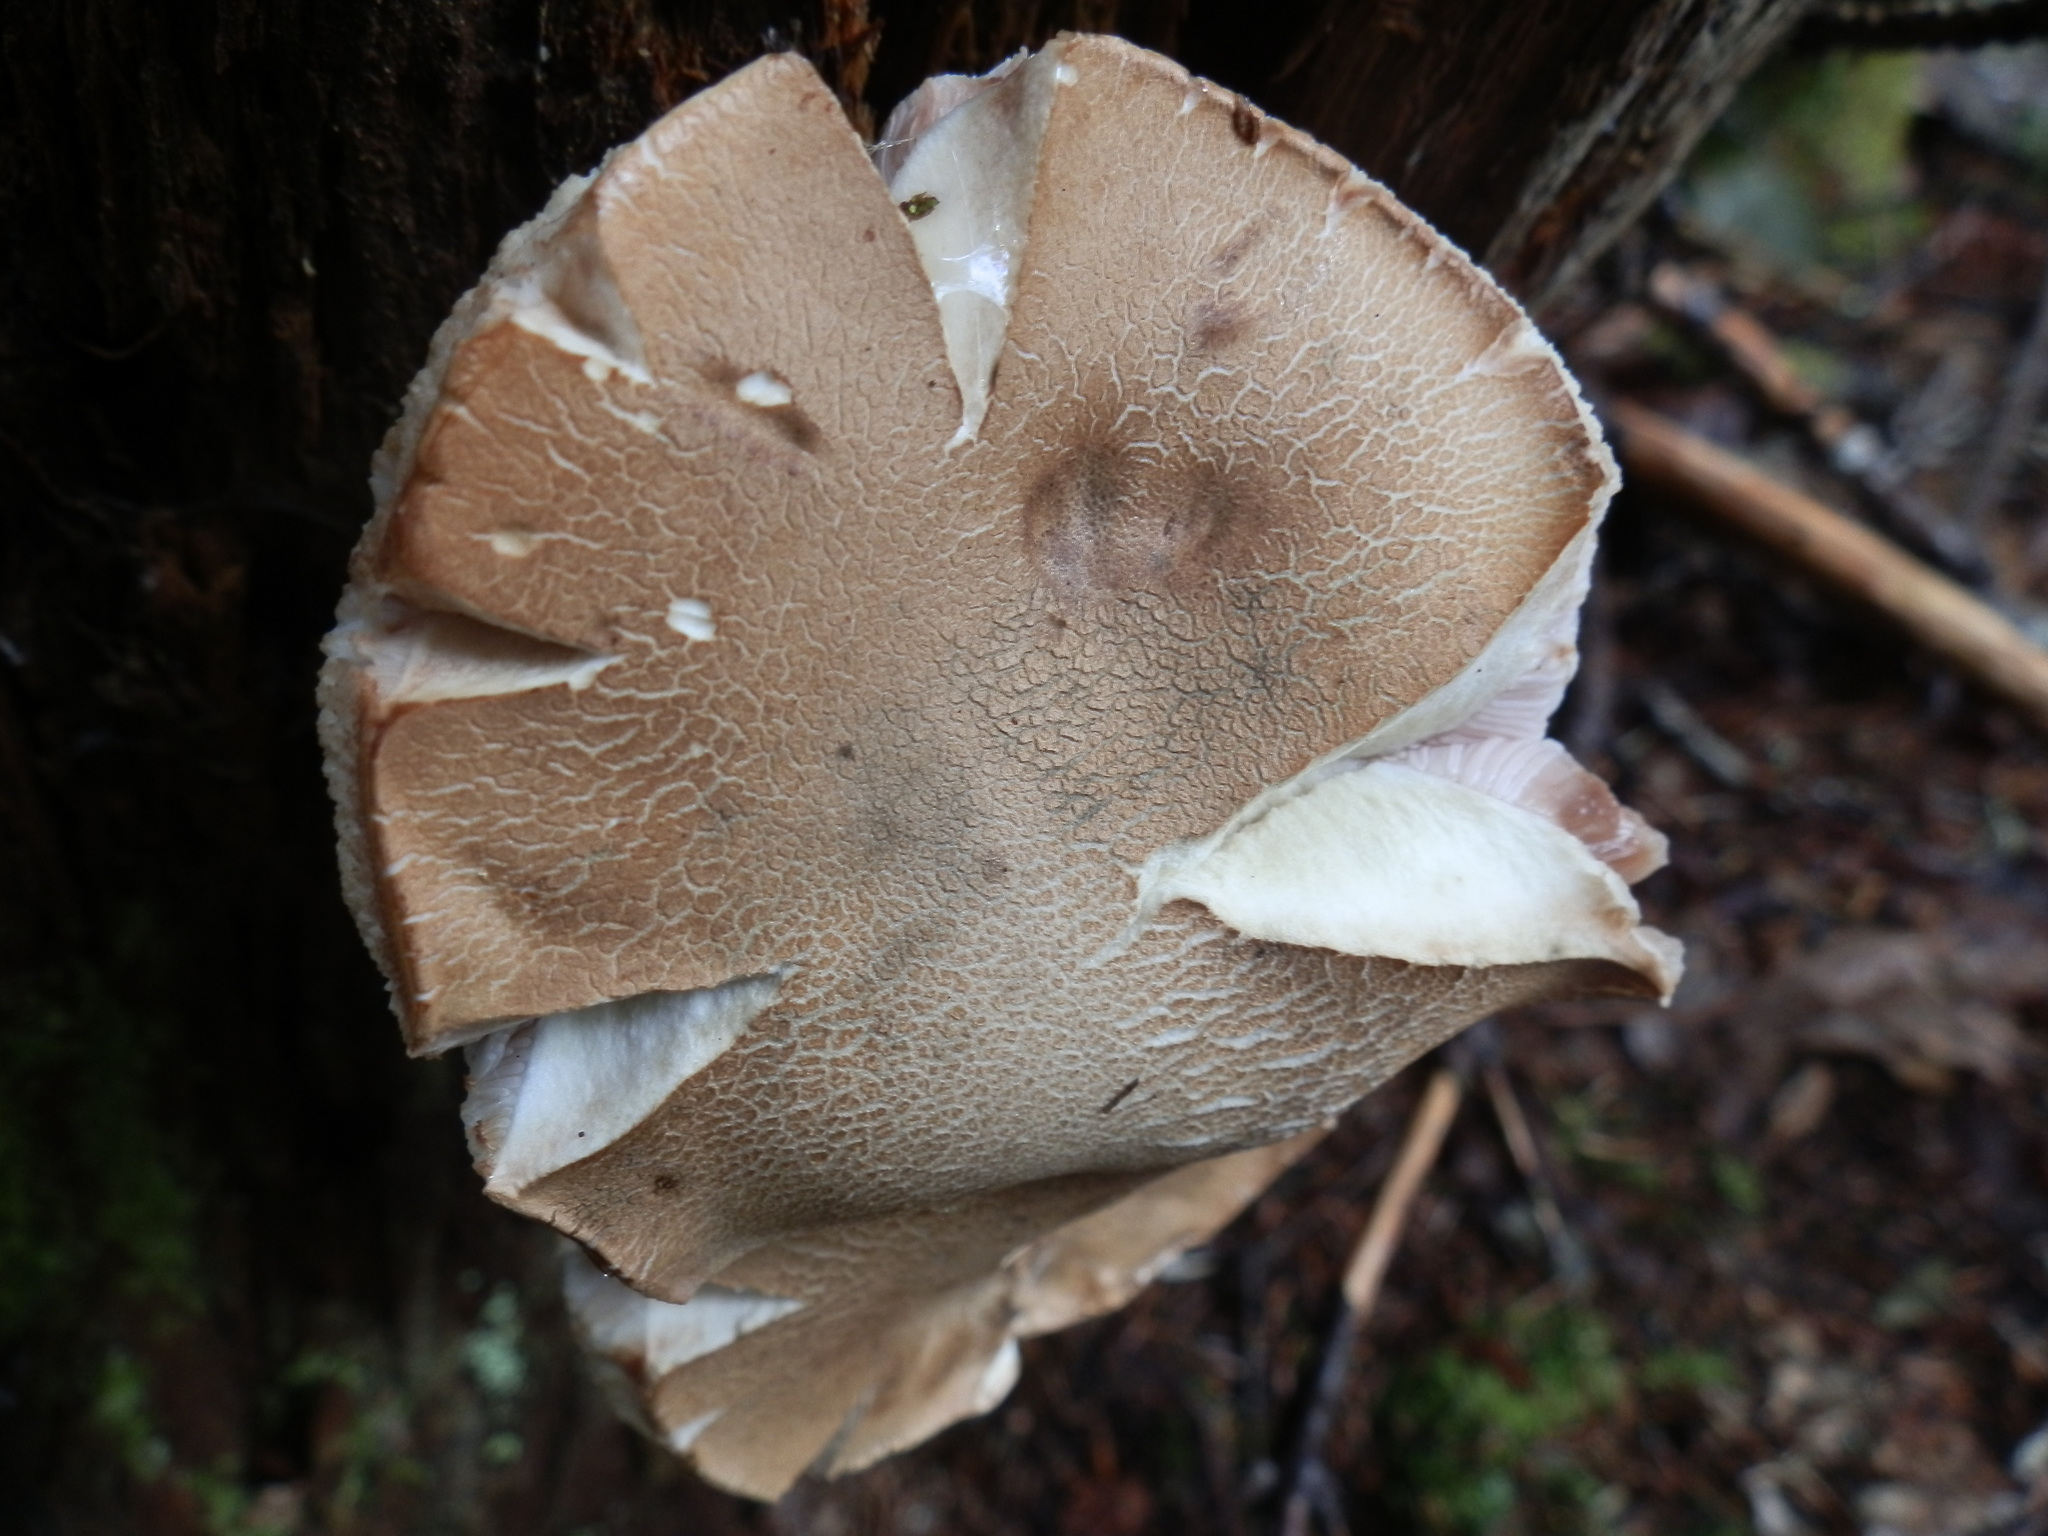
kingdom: Fungi
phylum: Basidiomycota
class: Agaricomycetes
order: Boletales
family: Boletaceae
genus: Tylopilus
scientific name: Tylopilus felleus
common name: Bitter bolete
